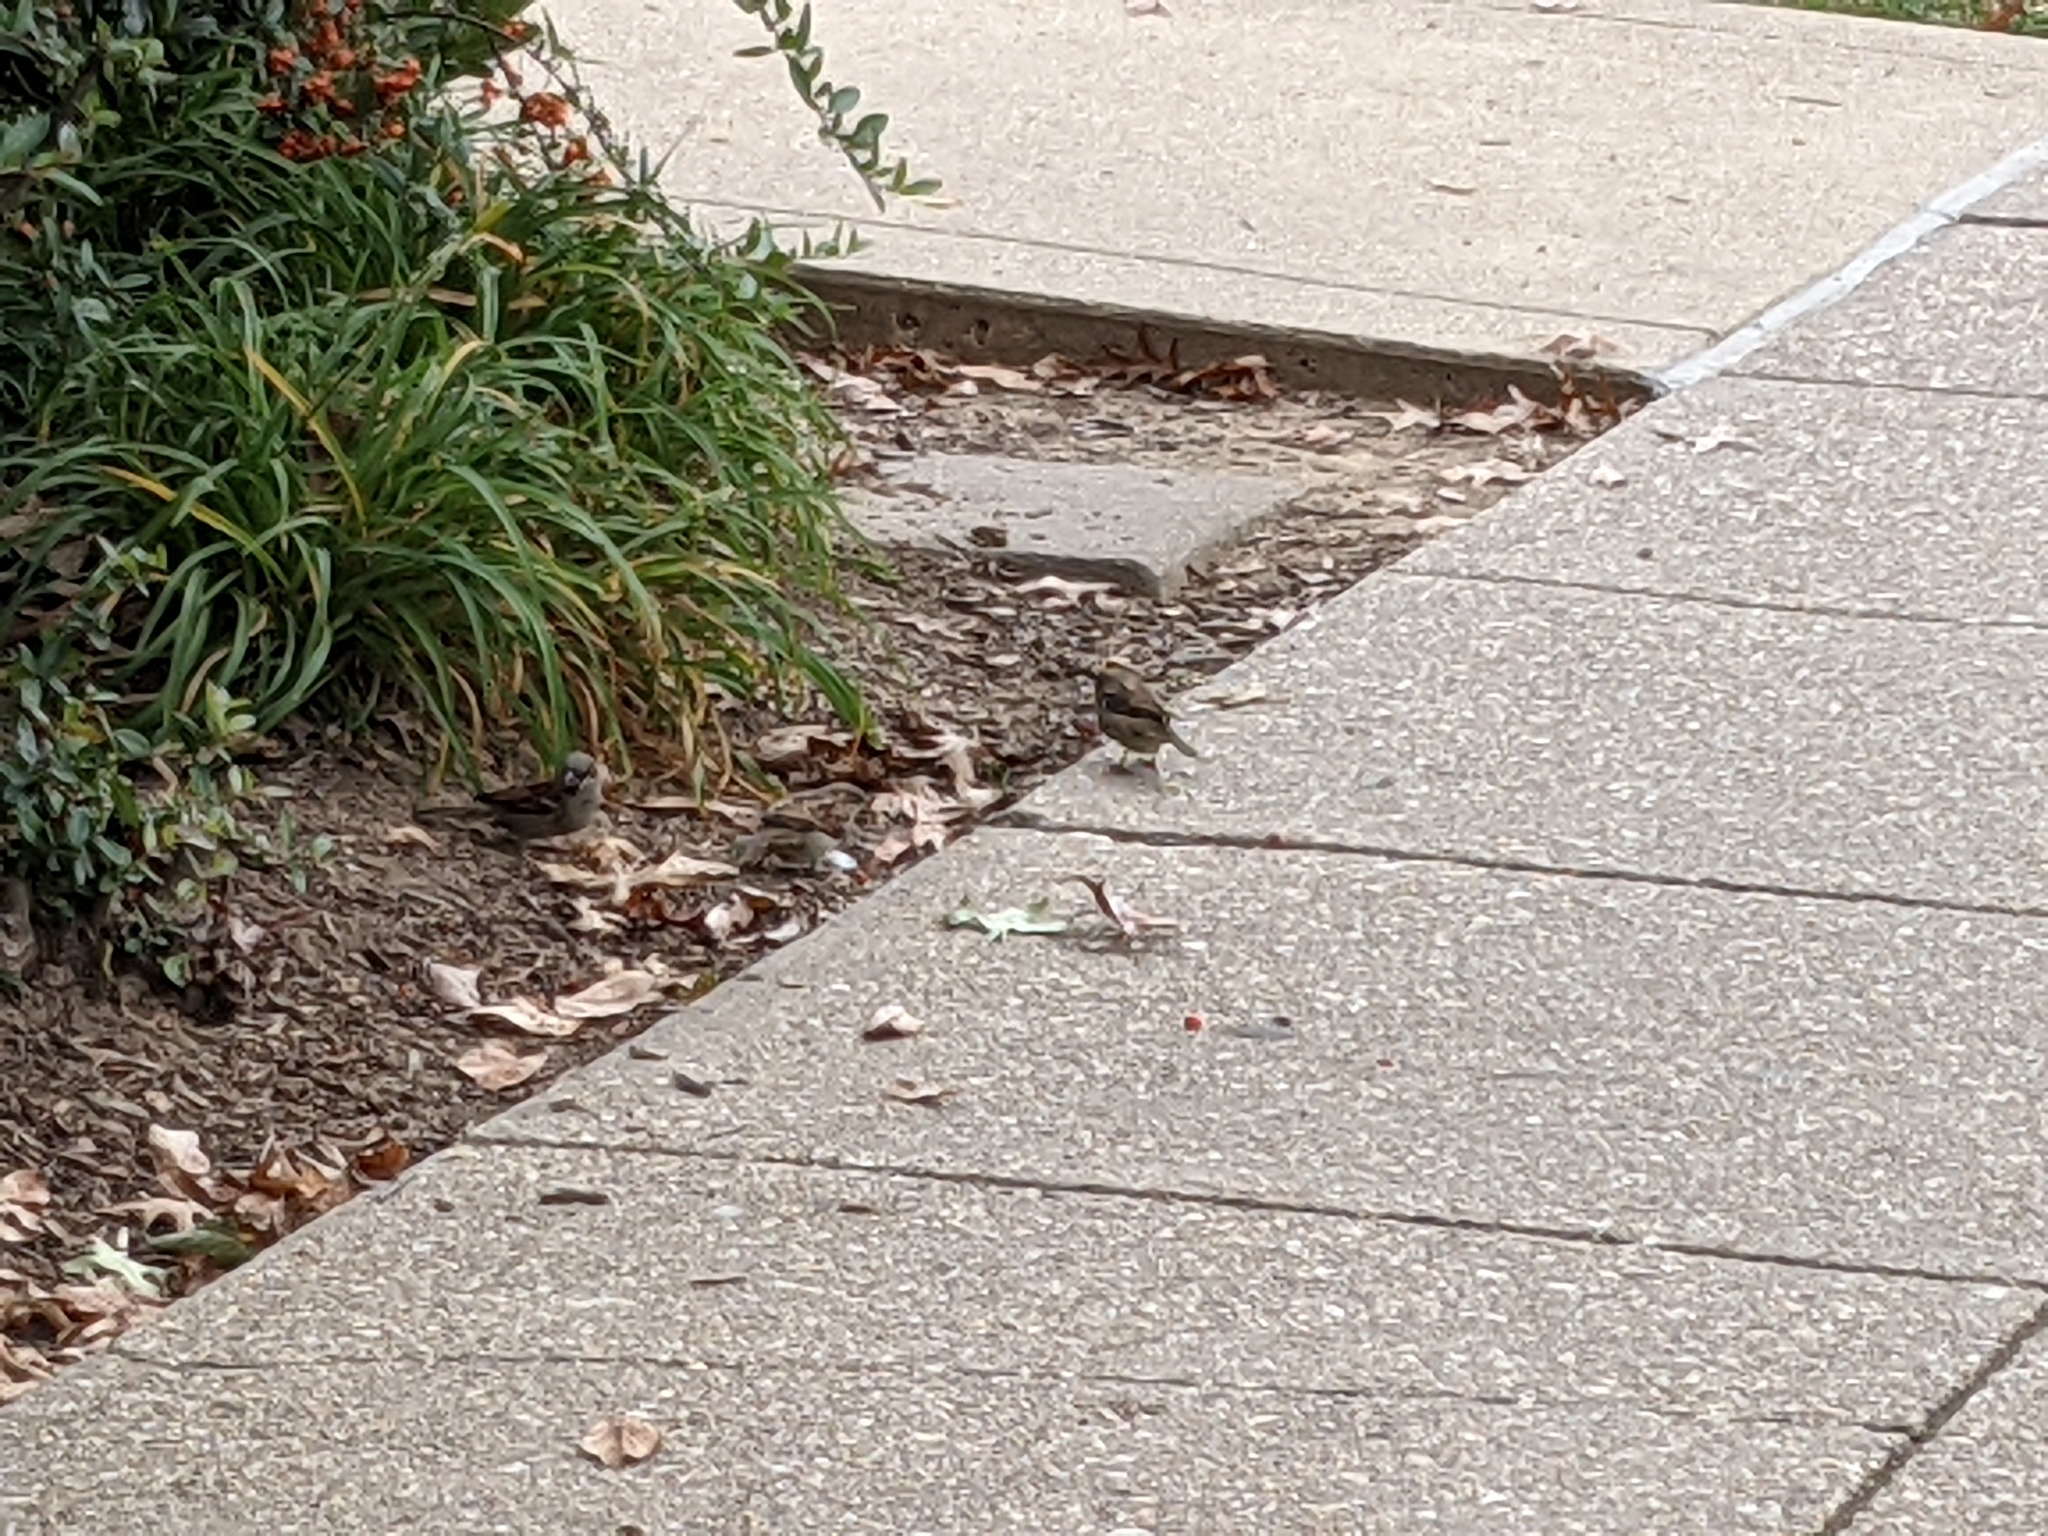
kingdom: Animalia
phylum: Chordata
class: Aves
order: Passeriformes
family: Passeridae
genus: Passer
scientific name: Passer domesticus
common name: House sparrow
